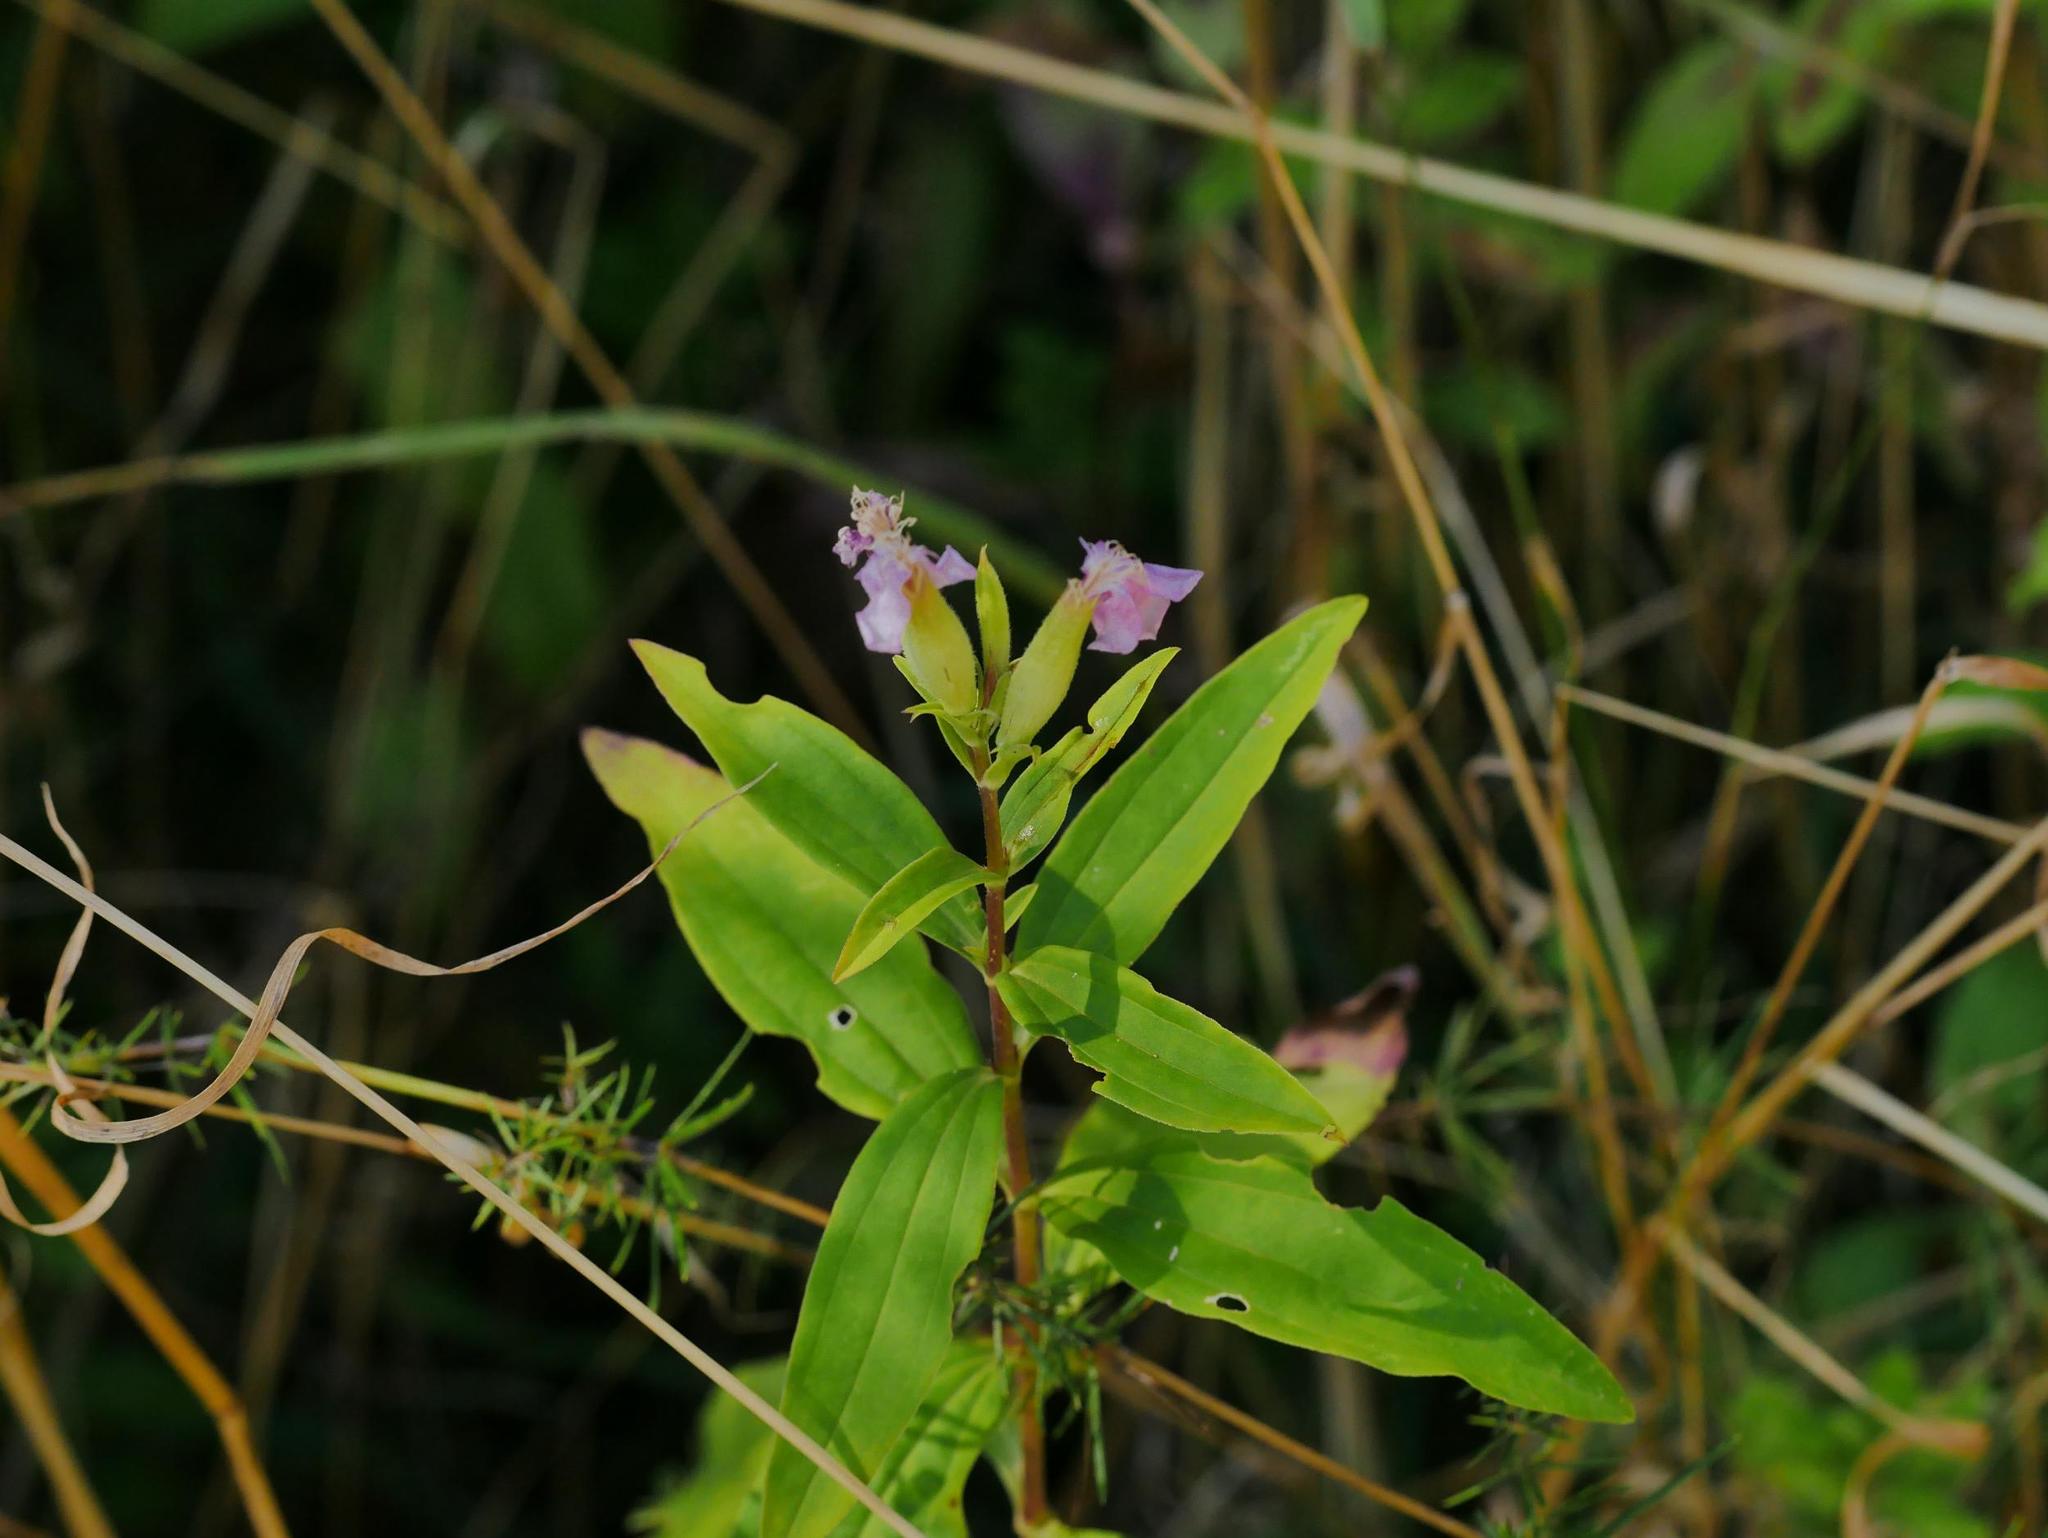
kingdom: Plantae
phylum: Tracheophyta
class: Magnoliopsida
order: Caryophyllales
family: Caryophyllaceae
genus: Saponaria
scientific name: Saponaria officinalis
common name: Soapwort
